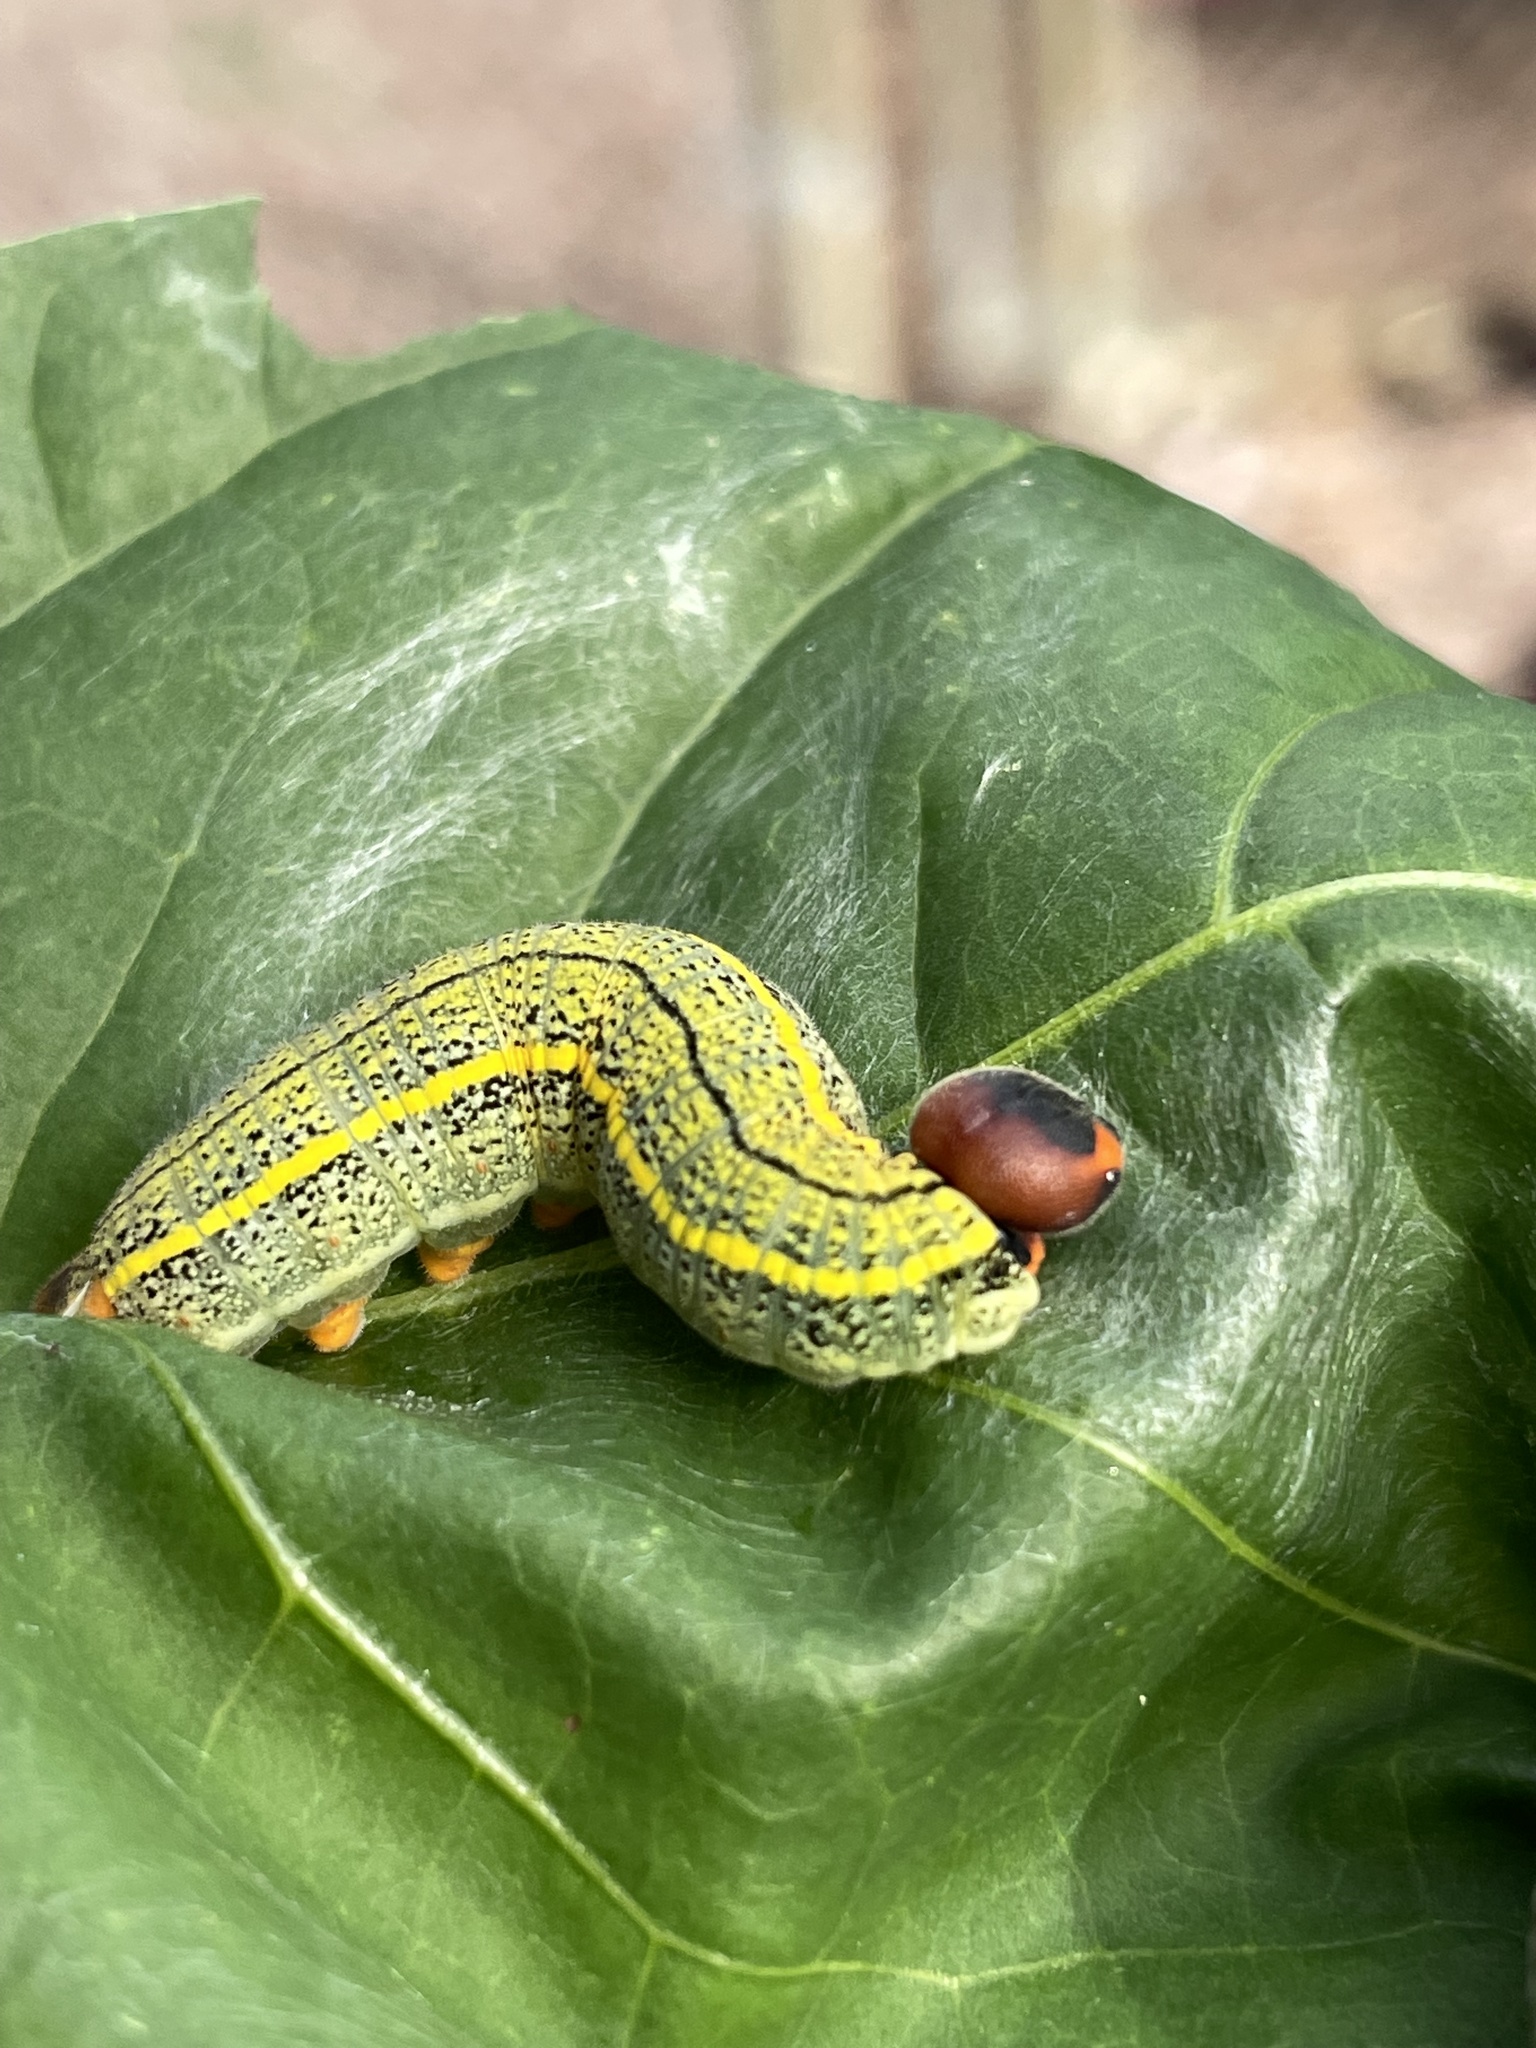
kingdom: Animalia
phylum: Arthropoda
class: Insecta
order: Lepidoptera
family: Hesperiidae
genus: Urbanus
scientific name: Urbanus proteus
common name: Long-tailed skipper
